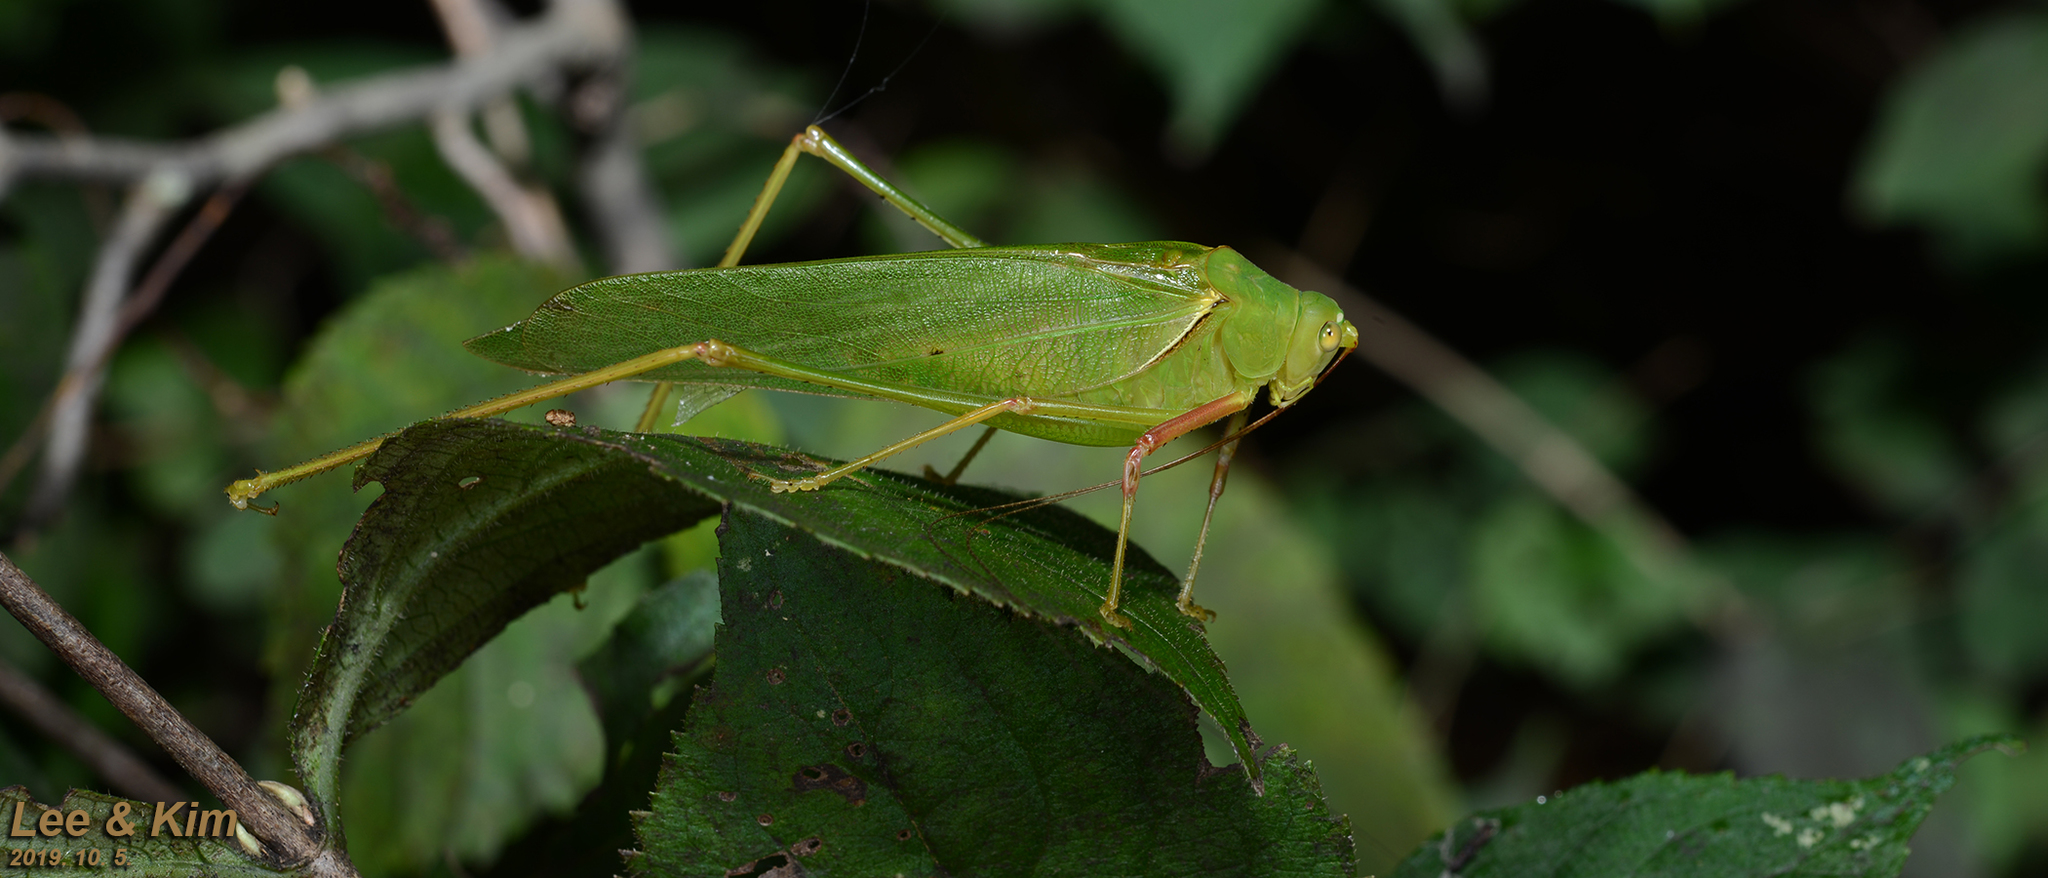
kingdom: Animalia
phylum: Arthropoda
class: Insecta
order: Orthoptera
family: Tettigoniidae
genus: Sinochlora
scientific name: Sinochlora longifissa
